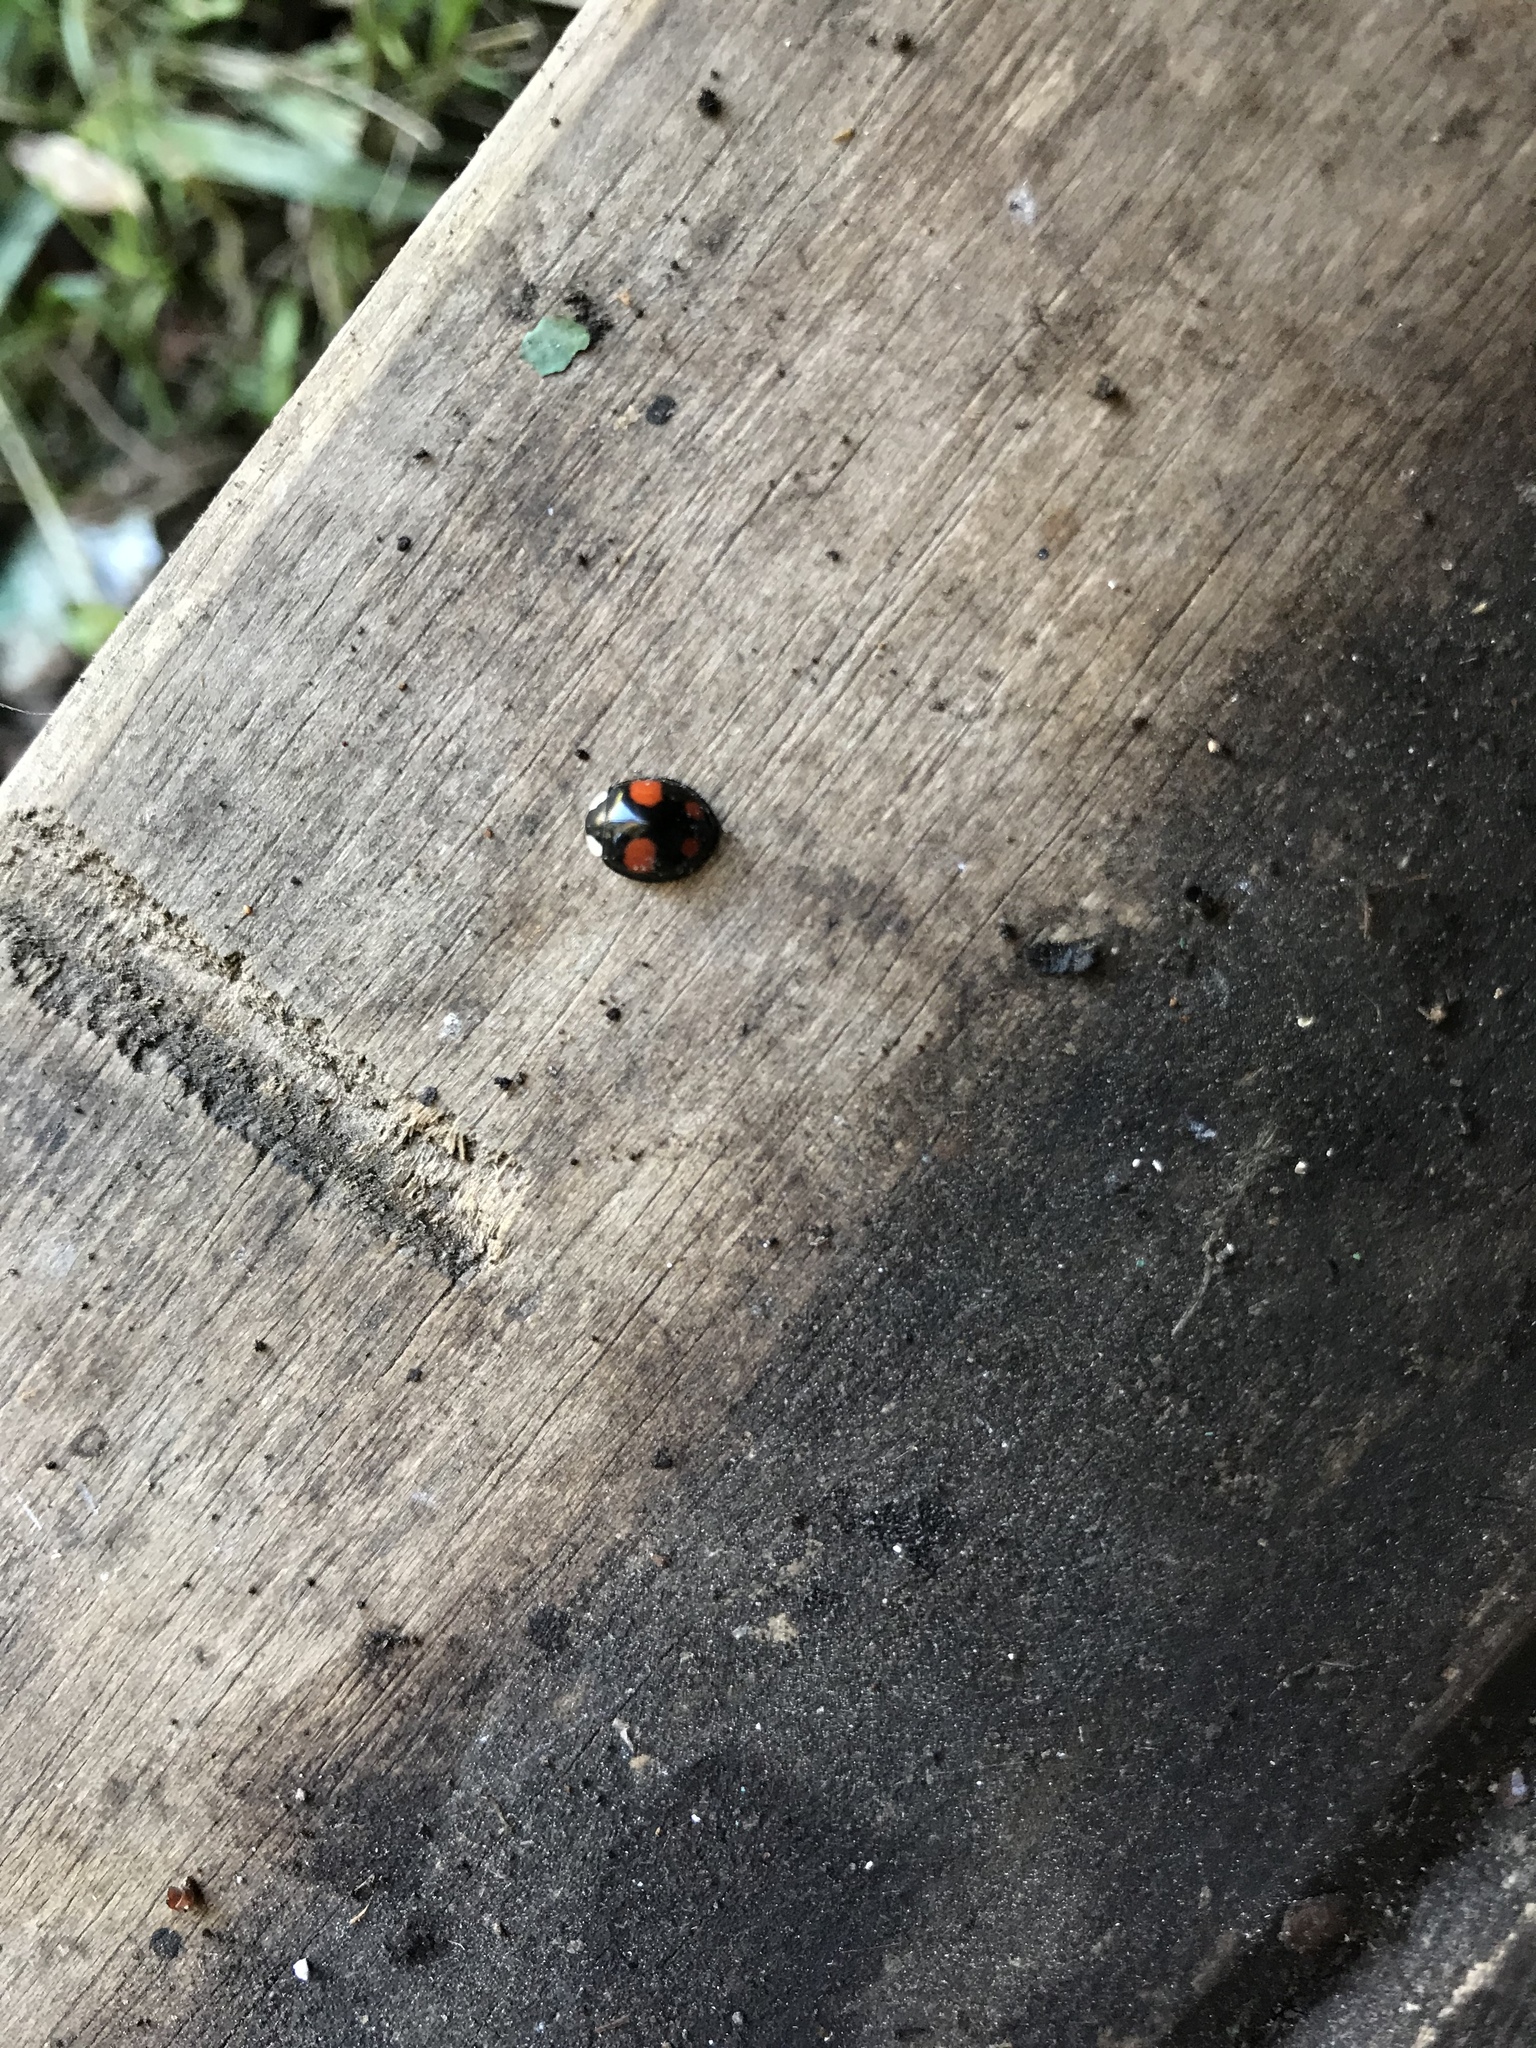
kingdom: Animalia
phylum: Arthropoda
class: Insecta
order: Coleoptera
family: Coccinellidae
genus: Harmonia
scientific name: Harmonia axyridis
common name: Harlequin ladybird
